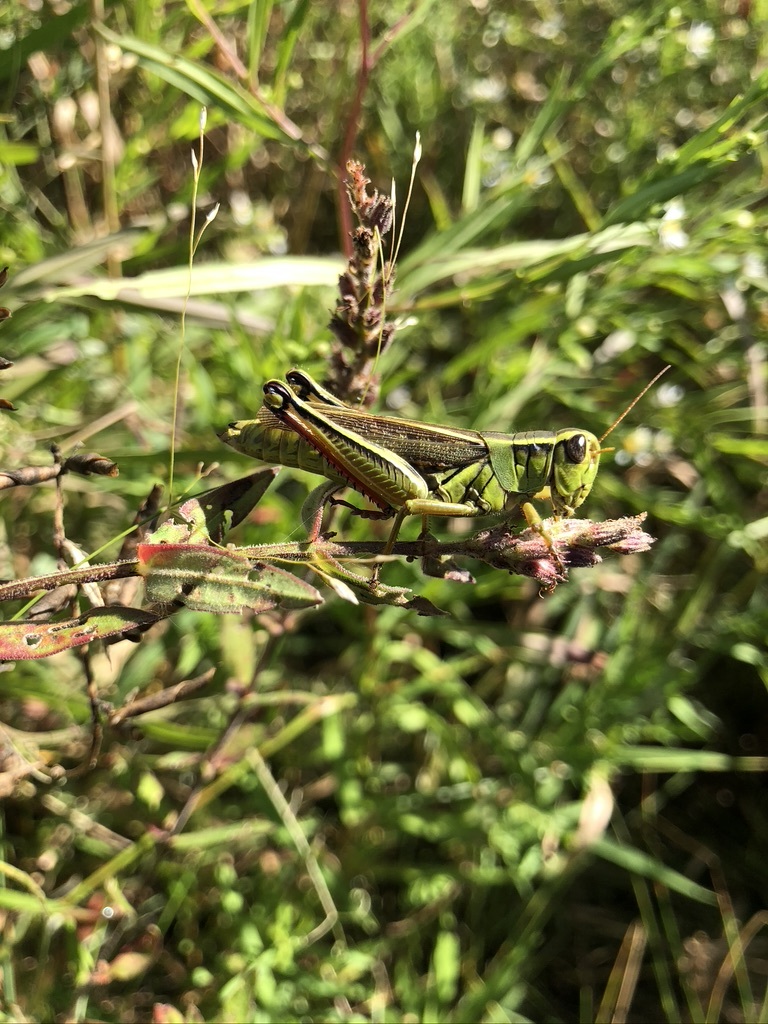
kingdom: Animalia
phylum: Arthropoda
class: Insecta
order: Orthoptera
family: Acrididae
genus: Melanoplus
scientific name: Melanoplus bivittatus
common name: Two-striped grasshopper
